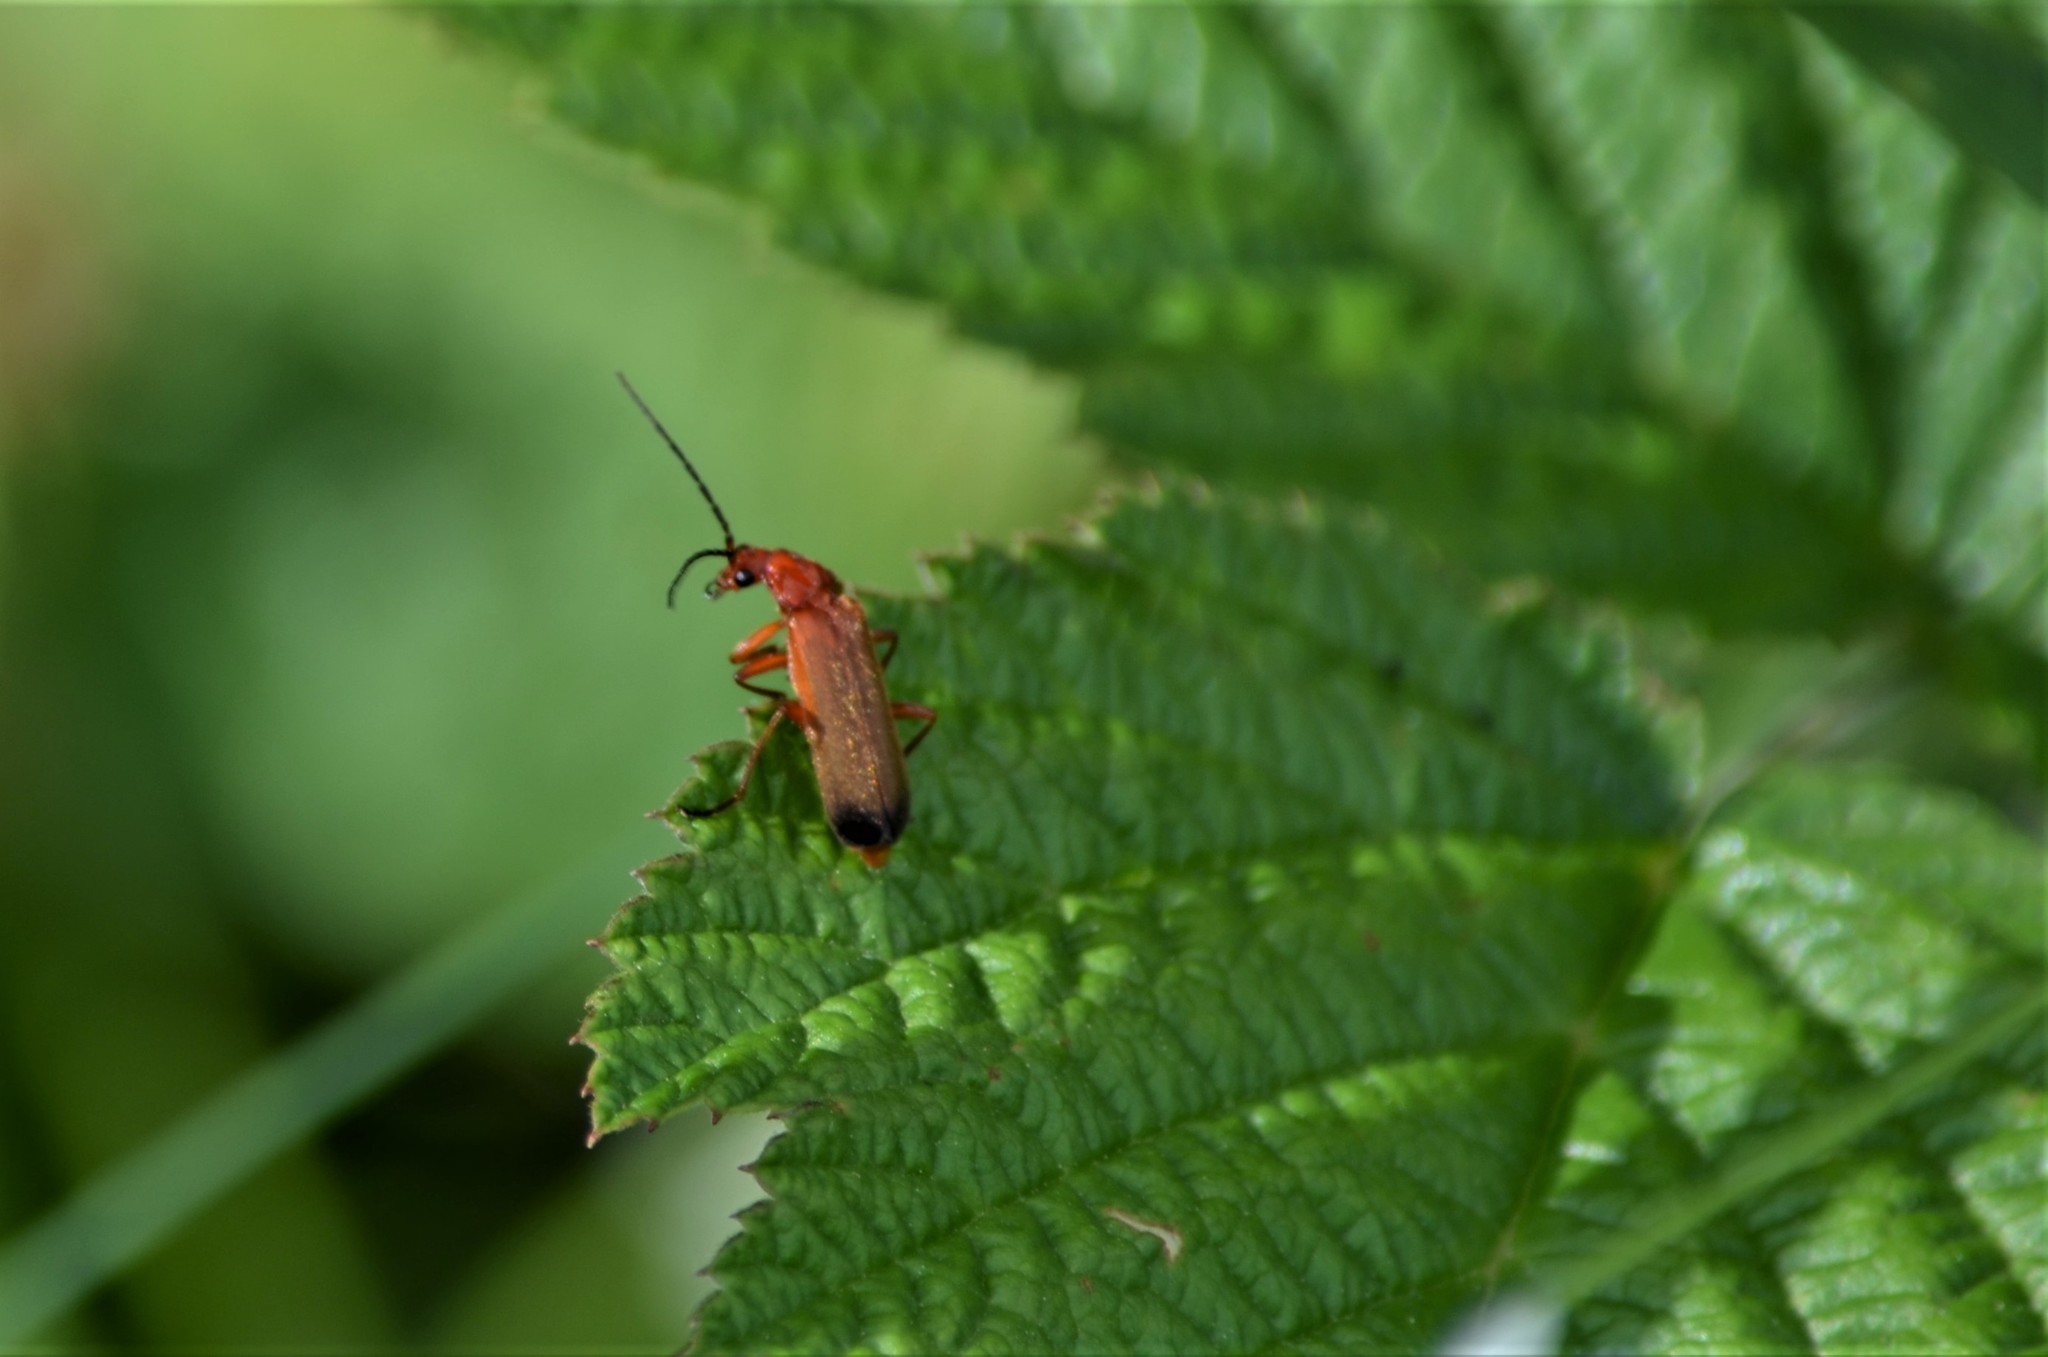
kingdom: Animalia
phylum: Arthropoda
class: Insecta
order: Coleoptera
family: Cantharidae
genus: Rhagonycha
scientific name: Rhagonycha fulva
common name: Common red soldier beetle
